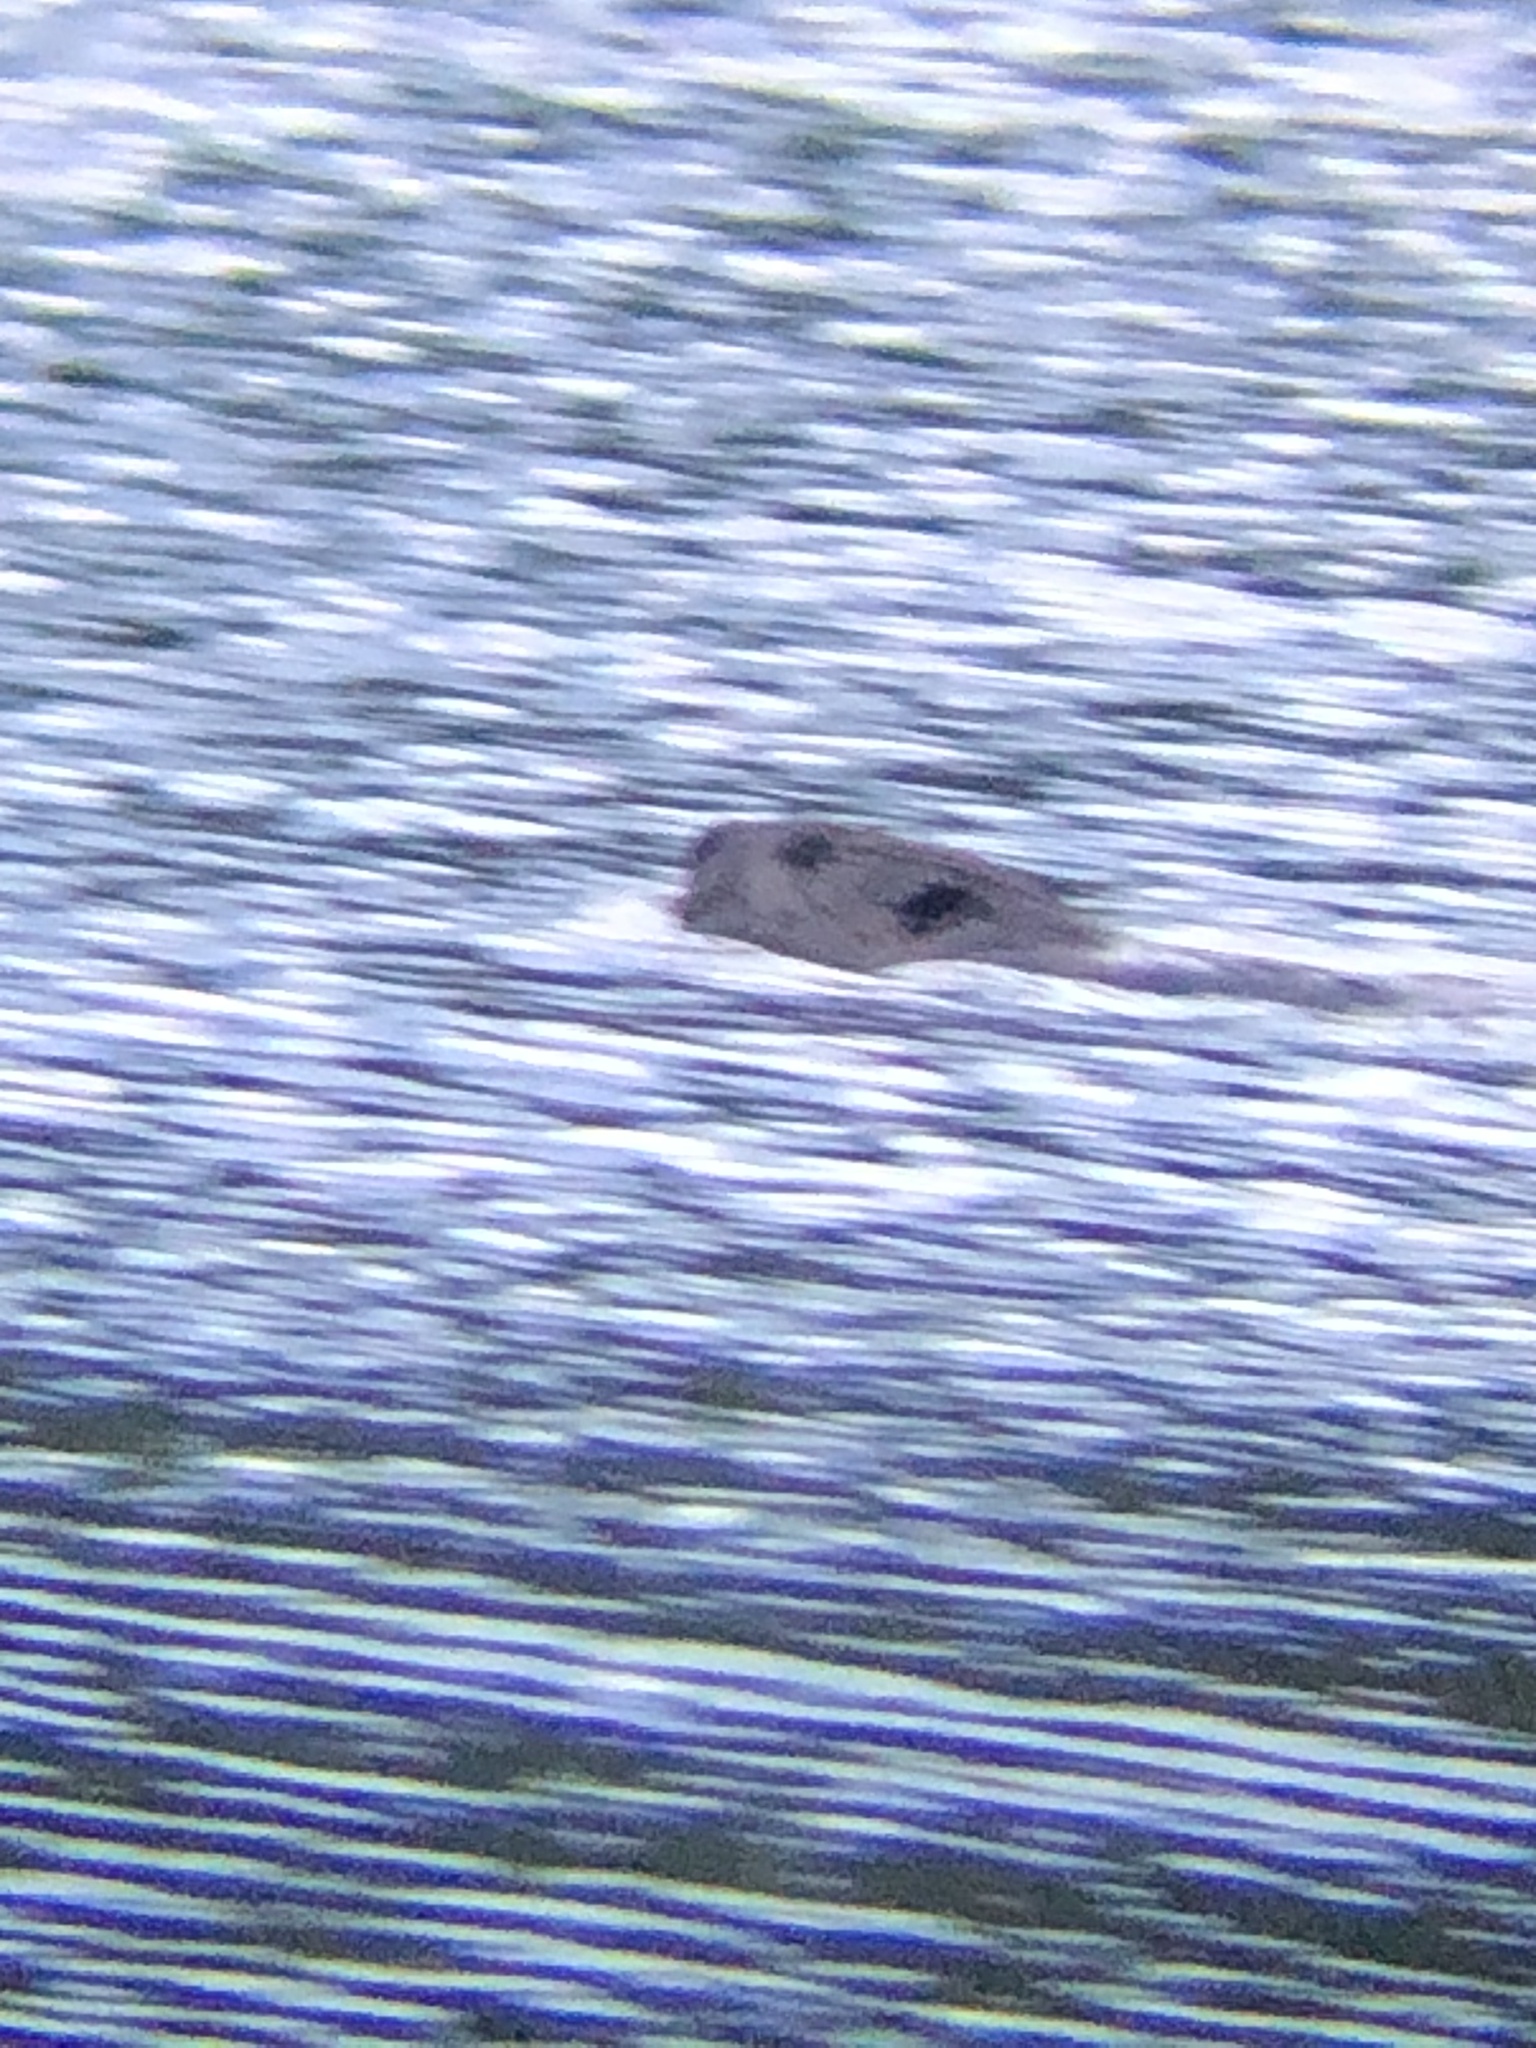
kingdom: Animalia
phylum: Chordata
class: Mammalia
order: Rodentia
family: Castoridae
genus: Castor
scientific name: Castor canadensis
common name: American beaver
